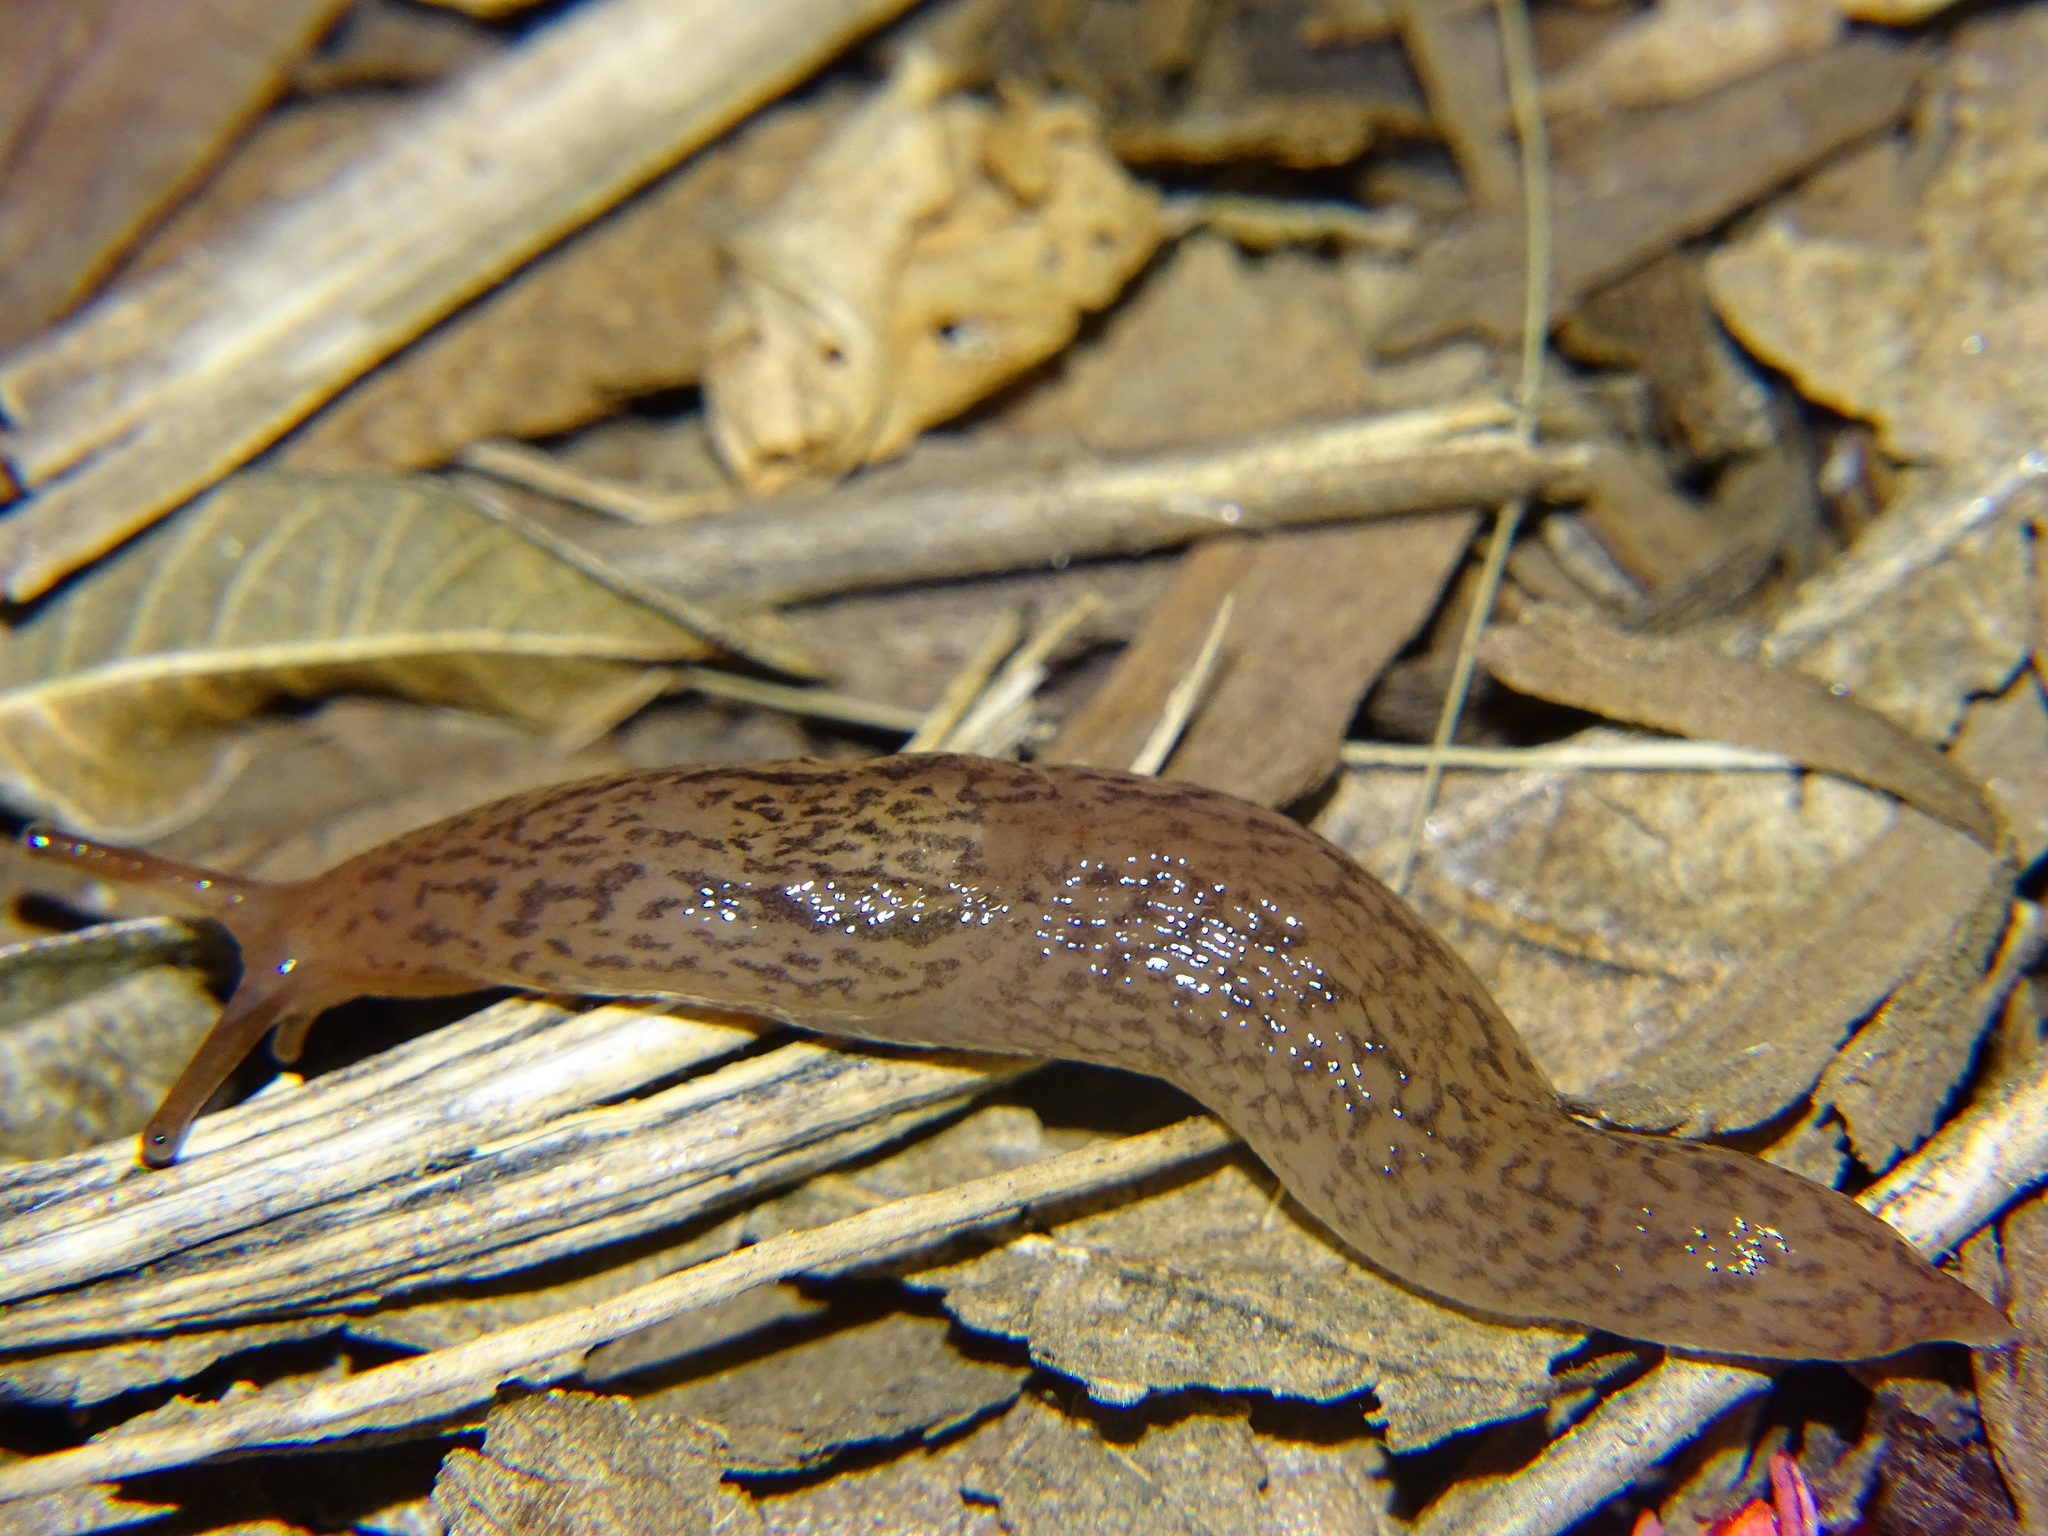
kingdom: Animalia
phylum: Mollusca
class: Gastropoda
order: Stylommatophora
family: Limacidae
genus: Ambigolimax
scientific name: Ambigolimax
